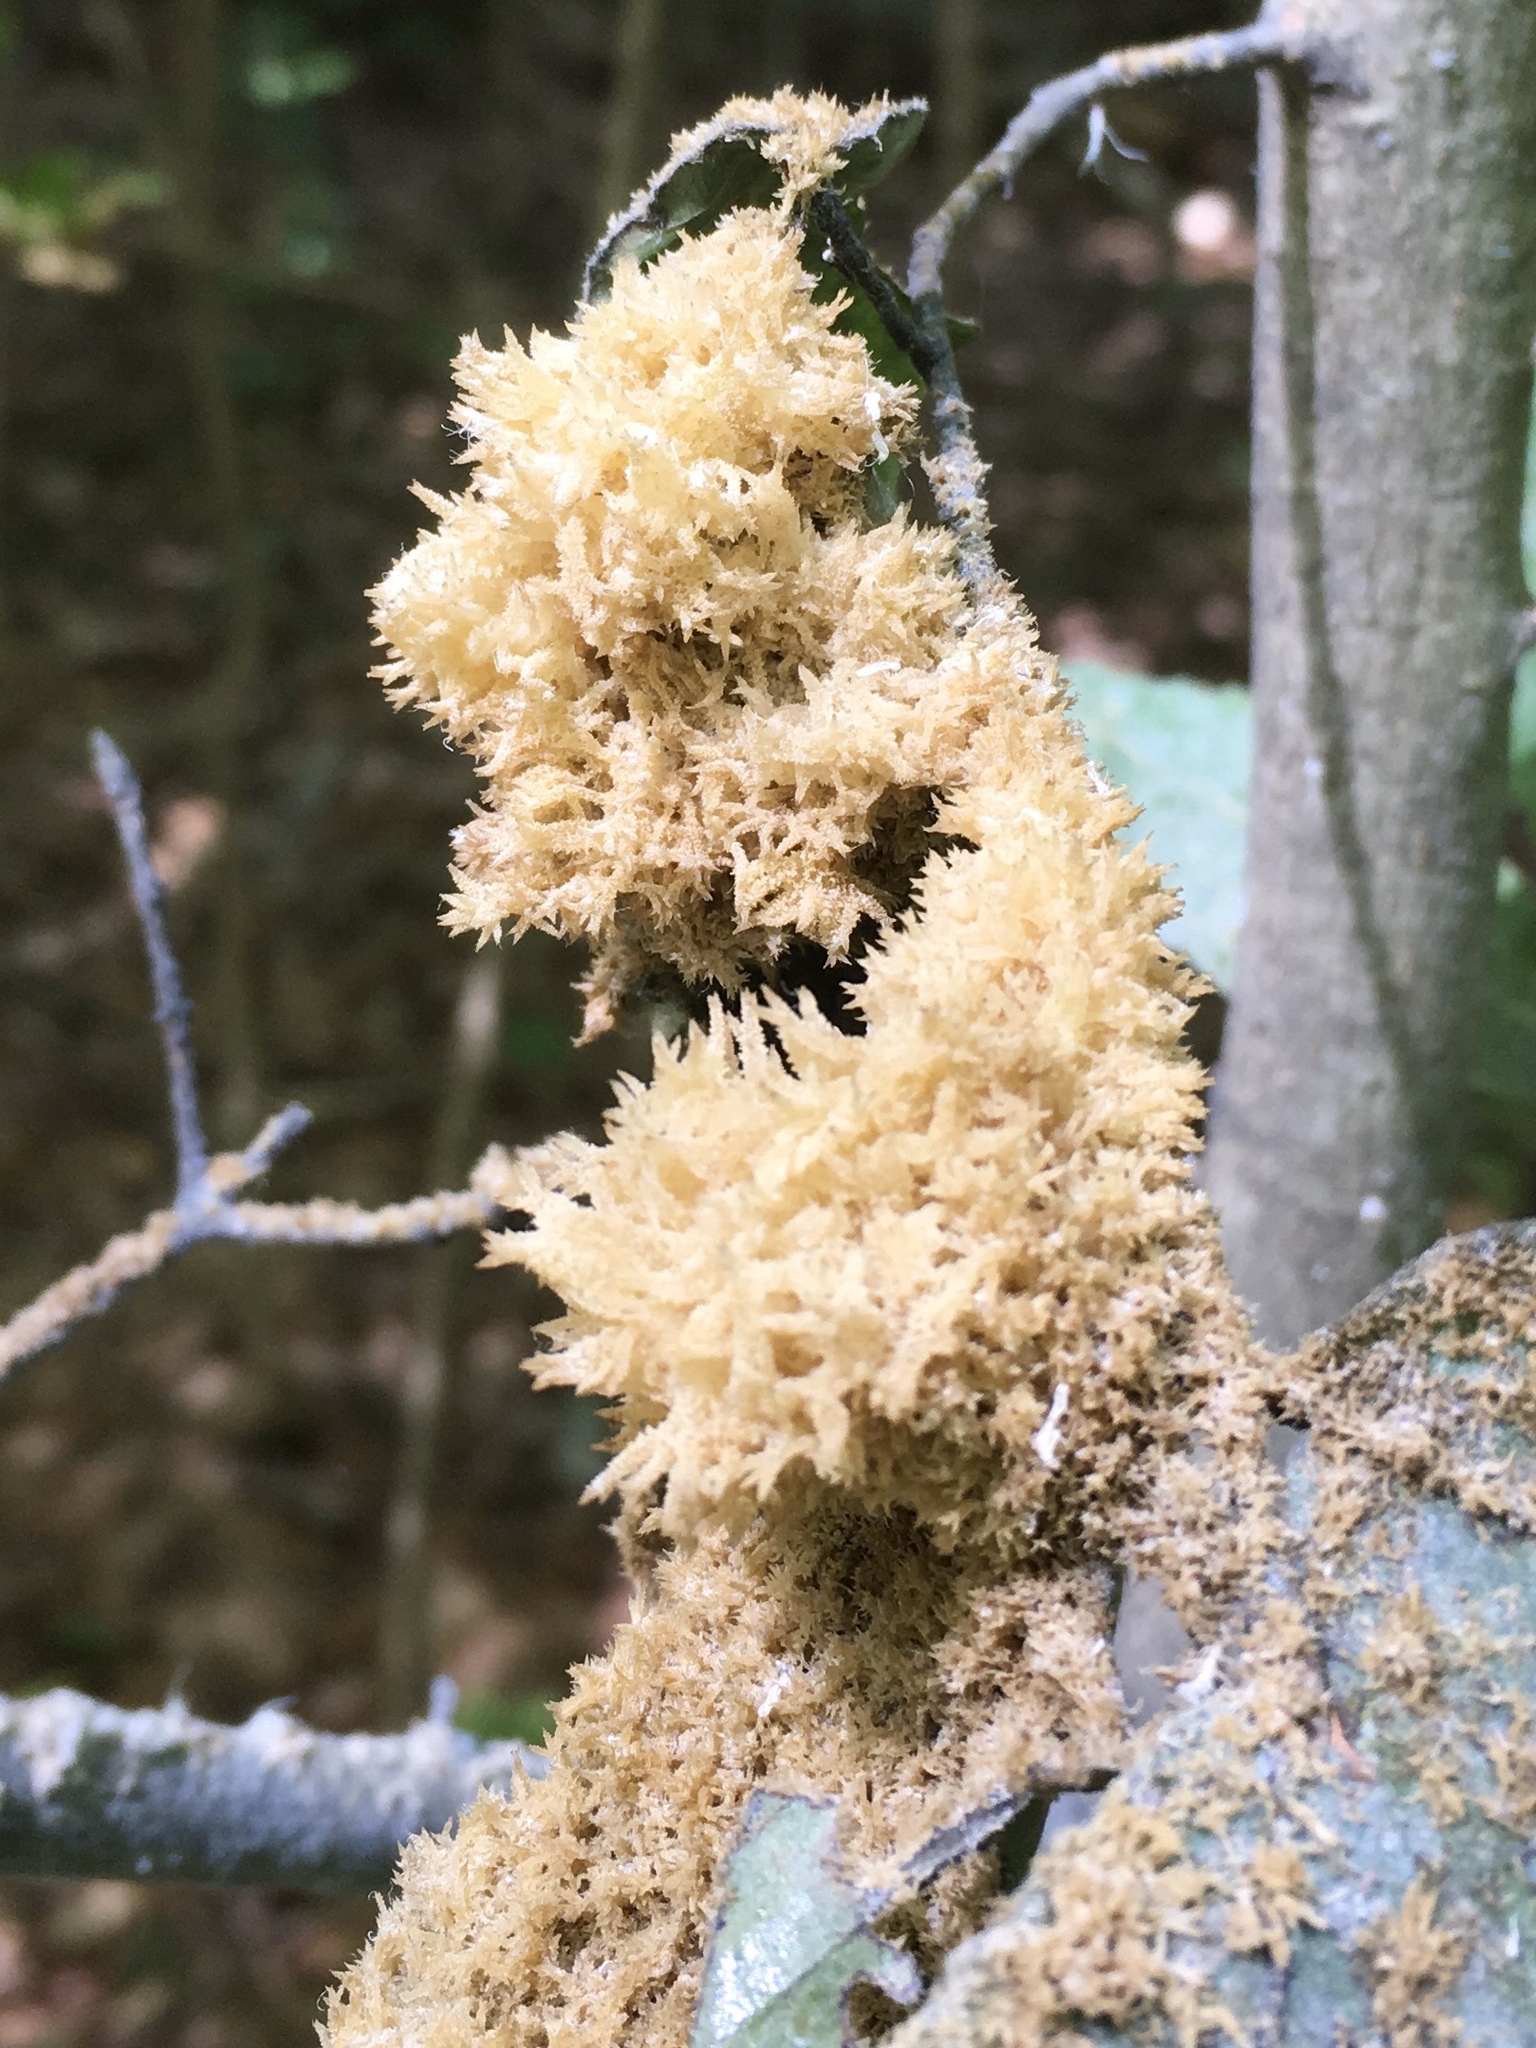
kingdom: Fungi
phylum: Ascomycota
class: Dothideomycetes
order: Capnodiales
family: Capnodiaceae
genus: Scorias
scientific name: Scorias spongiosa
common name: Black sooty mold
